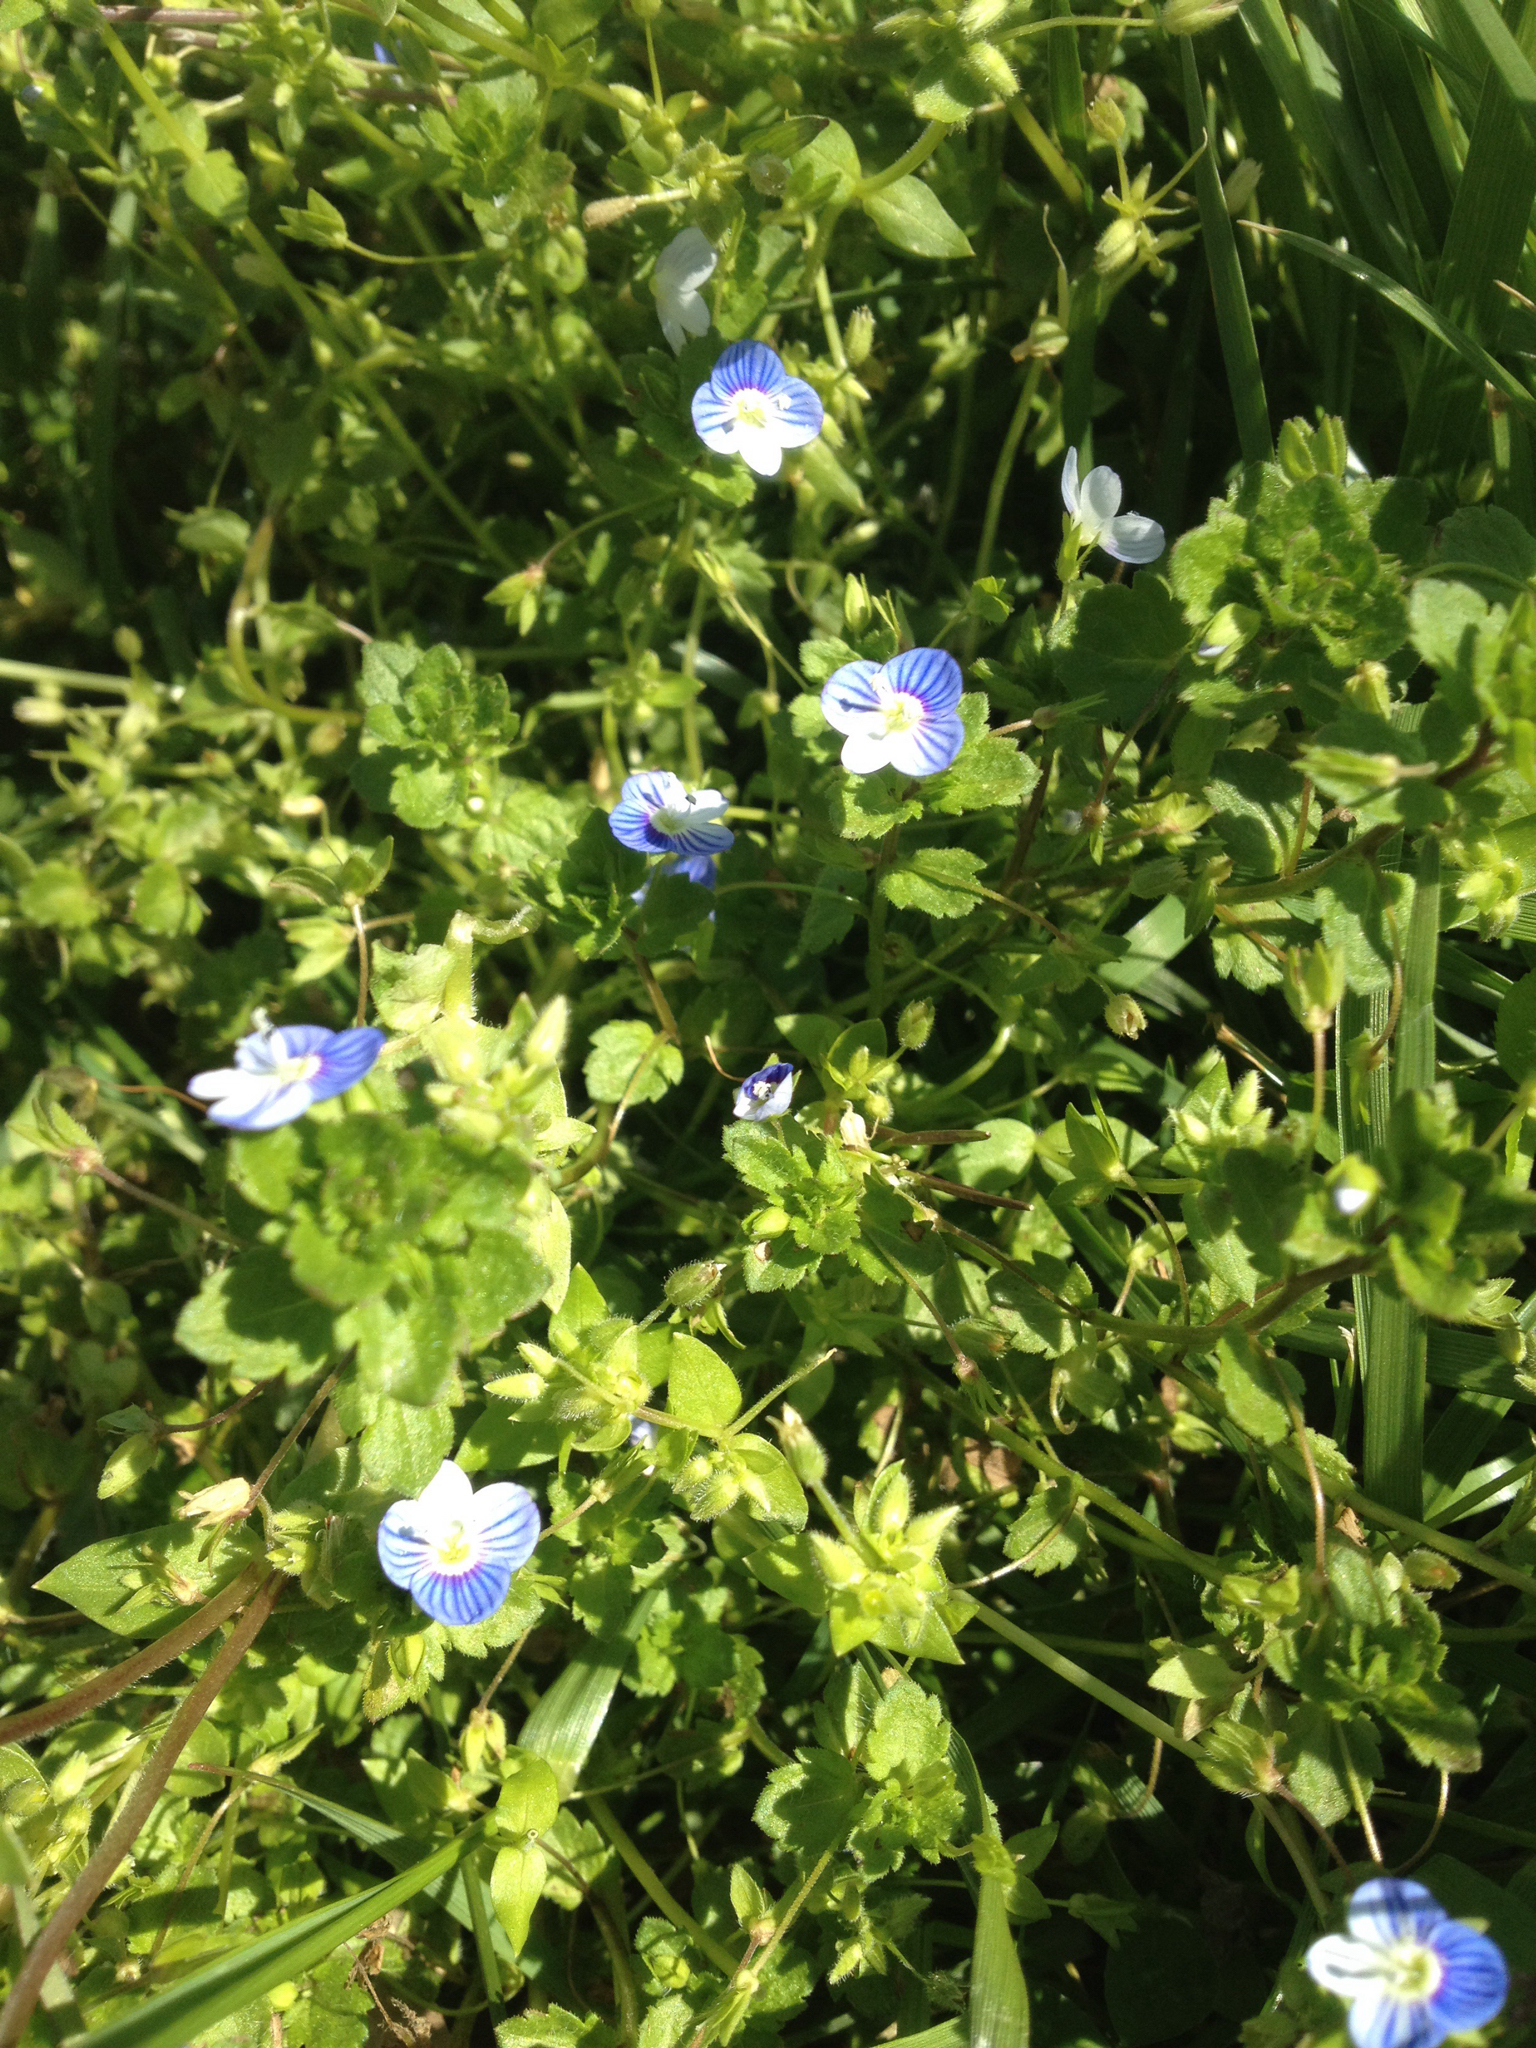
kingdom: Plantae
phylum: Tracheophyta
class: Magnoliopsida
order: Lamiales
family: Plantaginaceae
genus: Veronica
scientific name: Veronica persica
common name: Common field-speedwell
